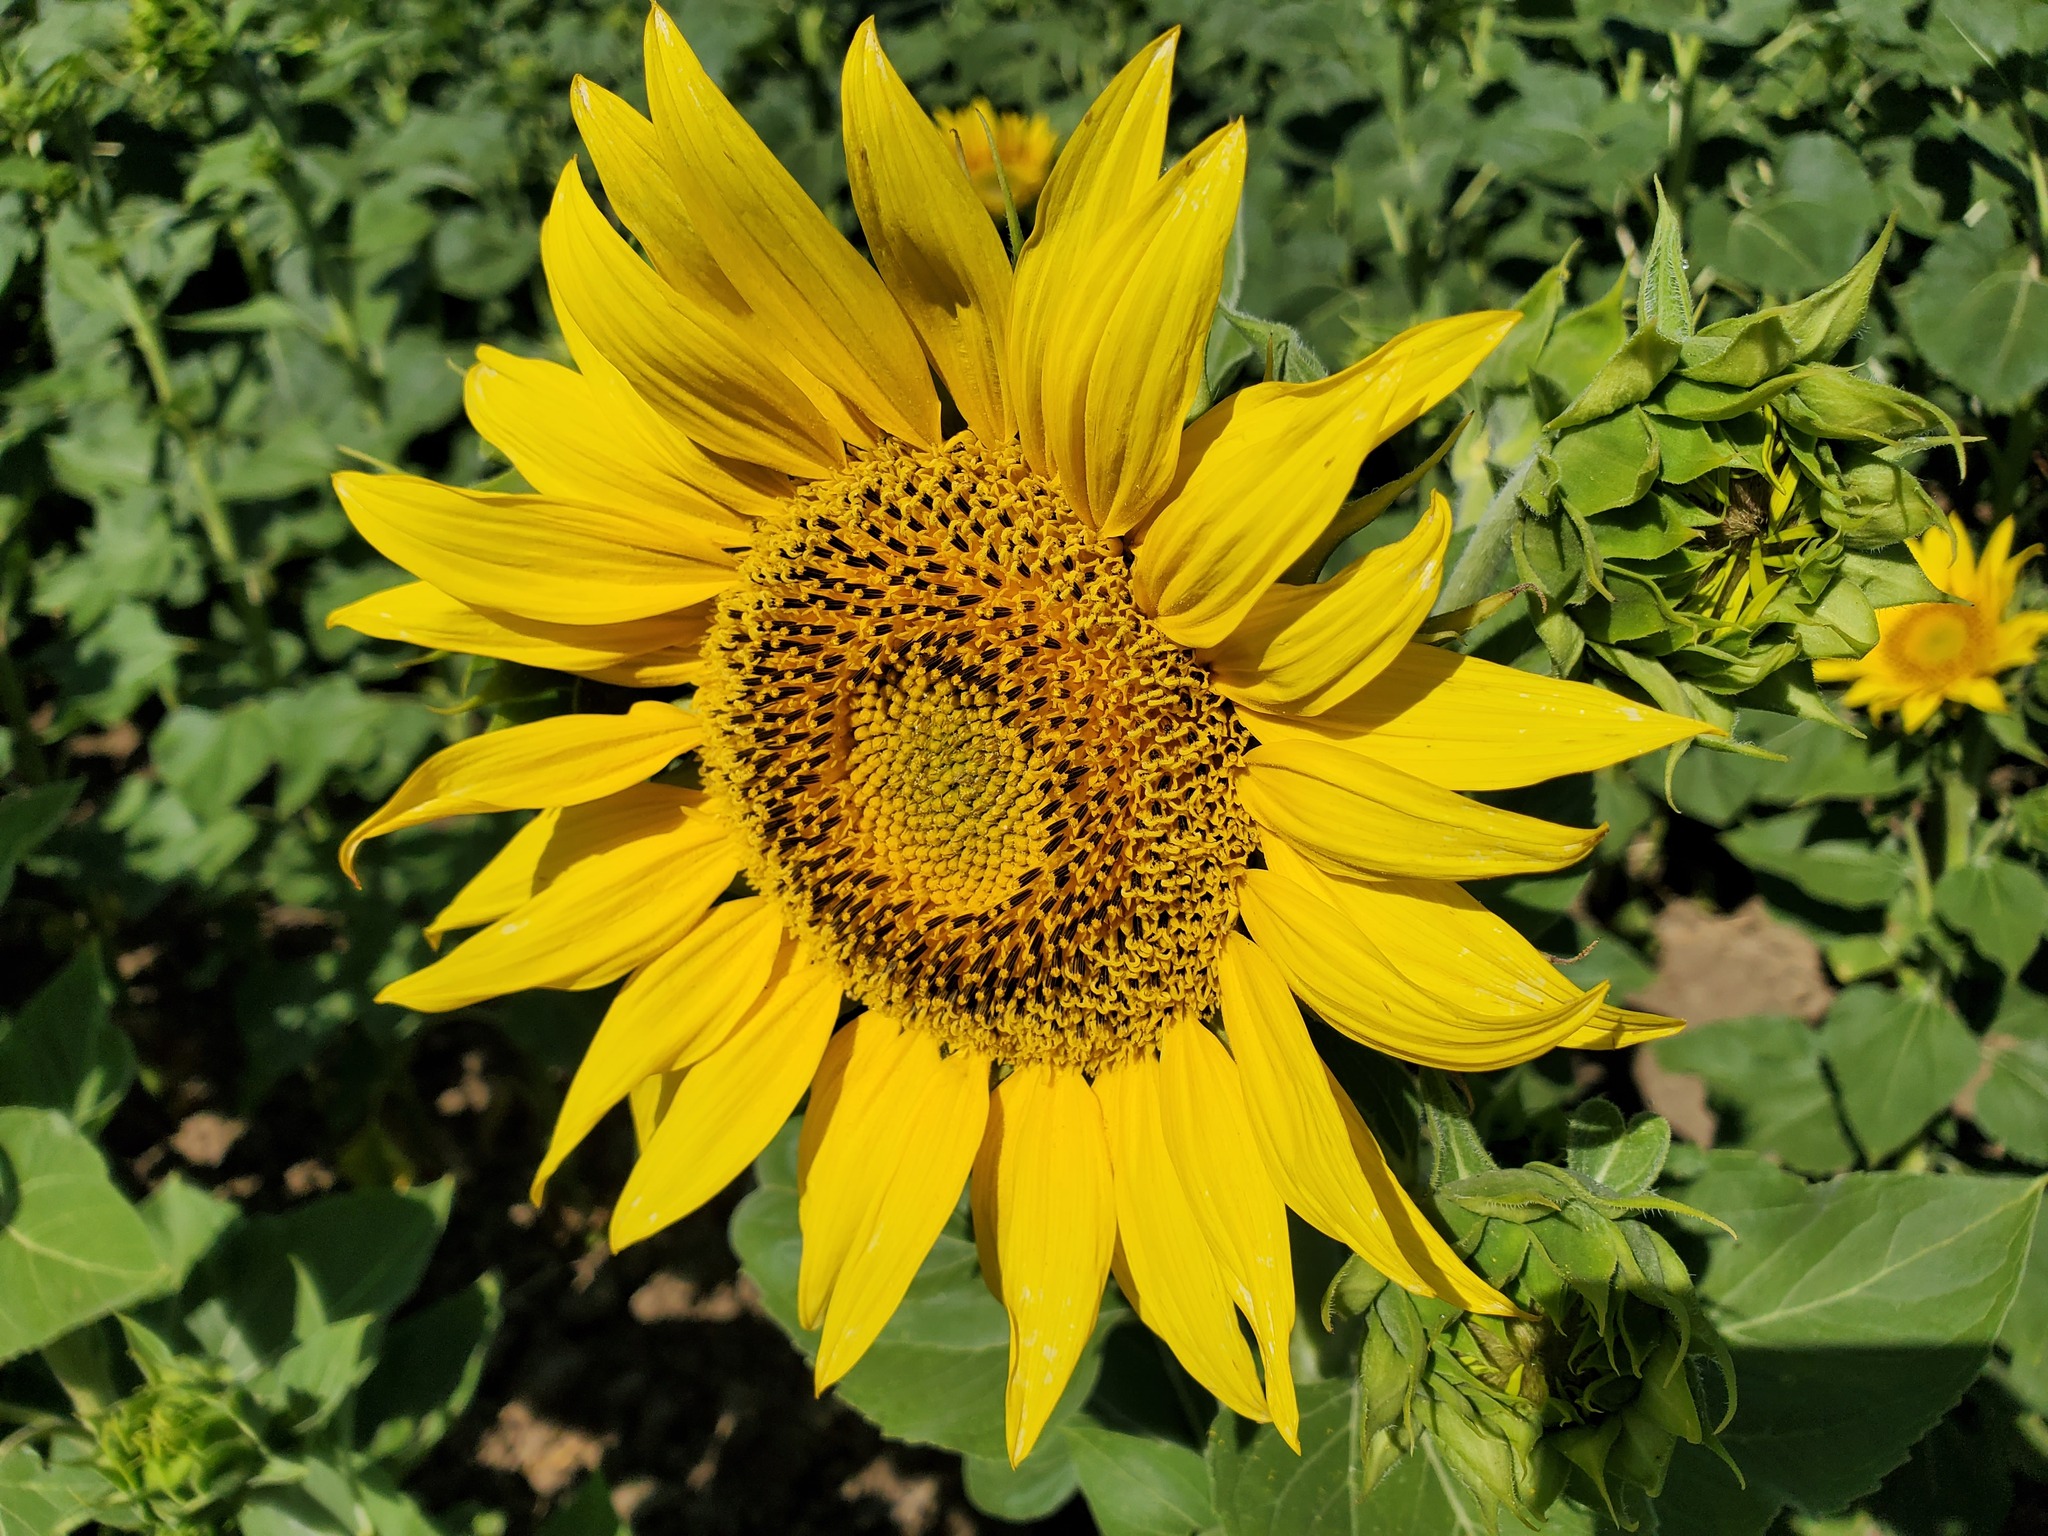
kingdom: Plantae
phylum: Tracheophyta
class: Magnoliopsida
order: Asterales
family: Asteraceae
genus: Helianthus
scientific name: Helianthus annuus
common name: Sunflower
